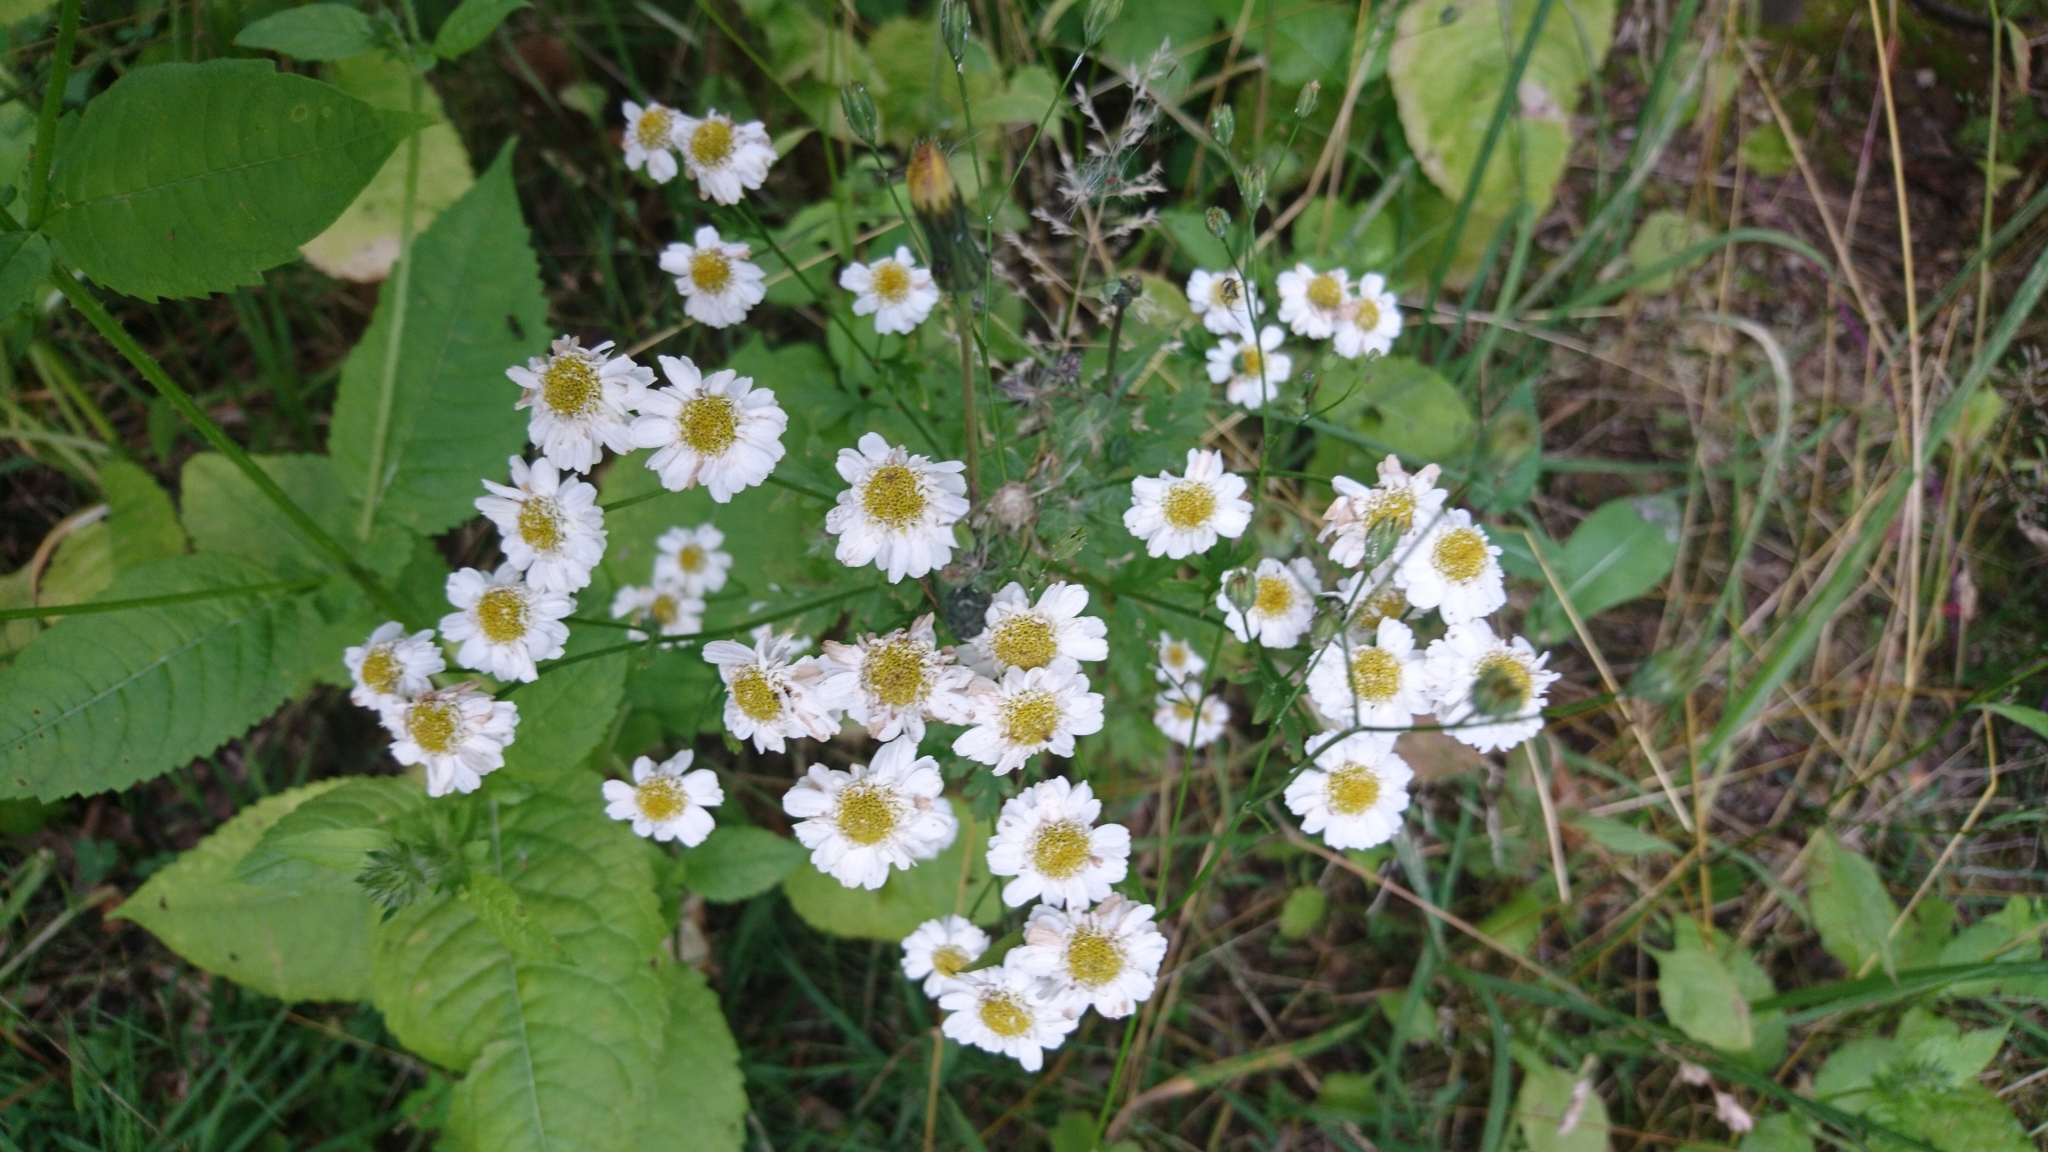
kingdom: Plantae
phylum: Tracheophyta
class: Magnoliopsida
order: Asterales
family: Asteraceae
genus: Tanacetum
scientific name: Tanacetum parthenium
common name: Feverfew
